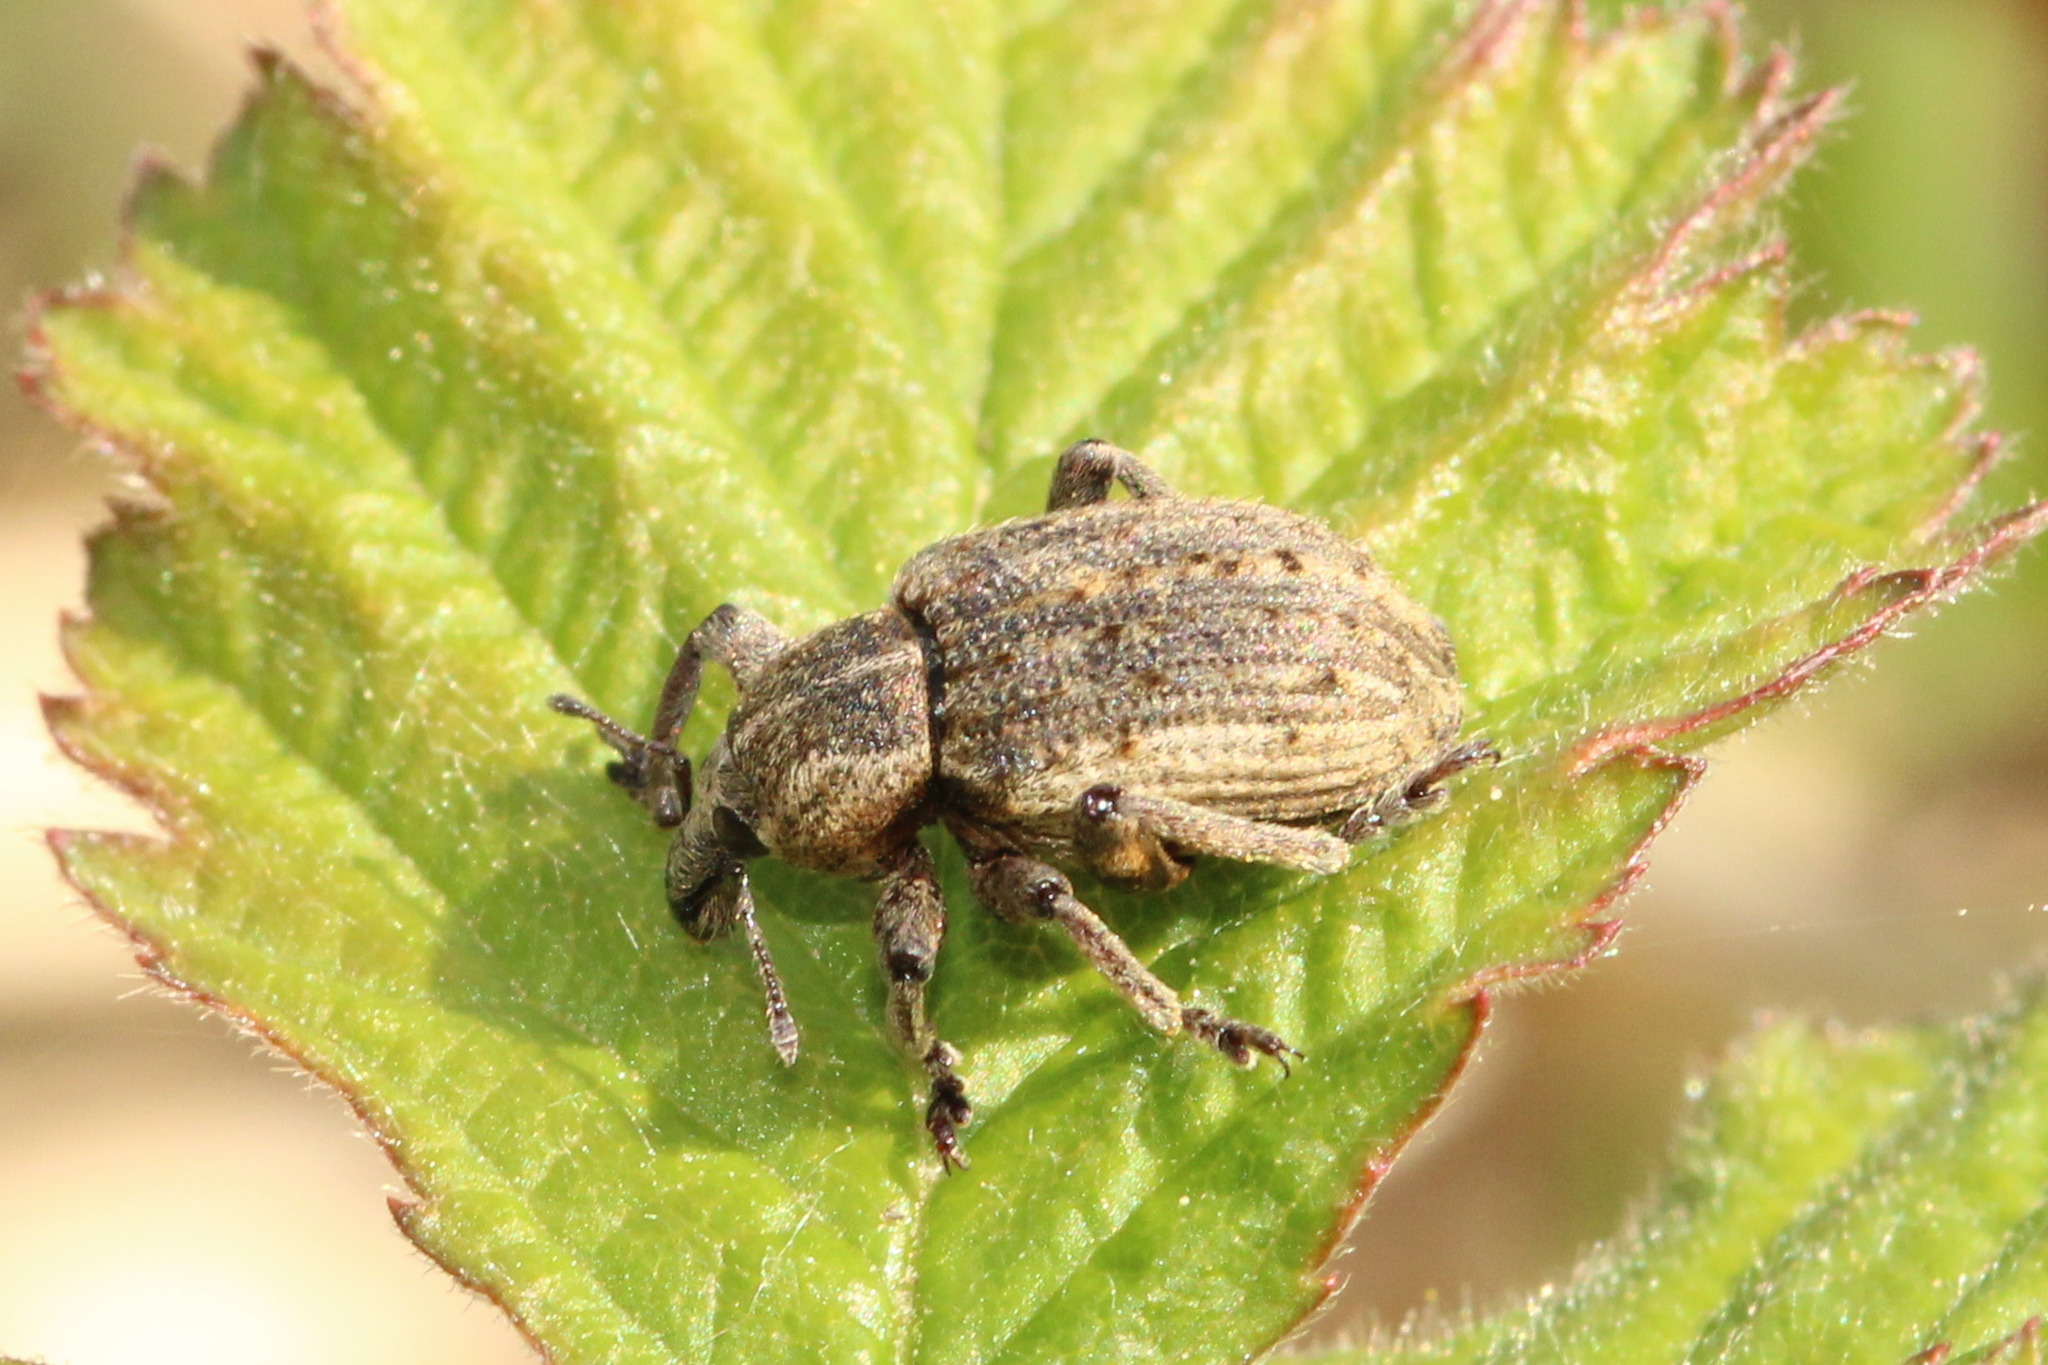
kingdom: Animalia
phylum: Arthropoda
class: Insecta
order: Coleoptera
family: Curculionidae
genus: Brachypera
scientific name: Brachypera zoilus
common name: Clover leaf weevil
